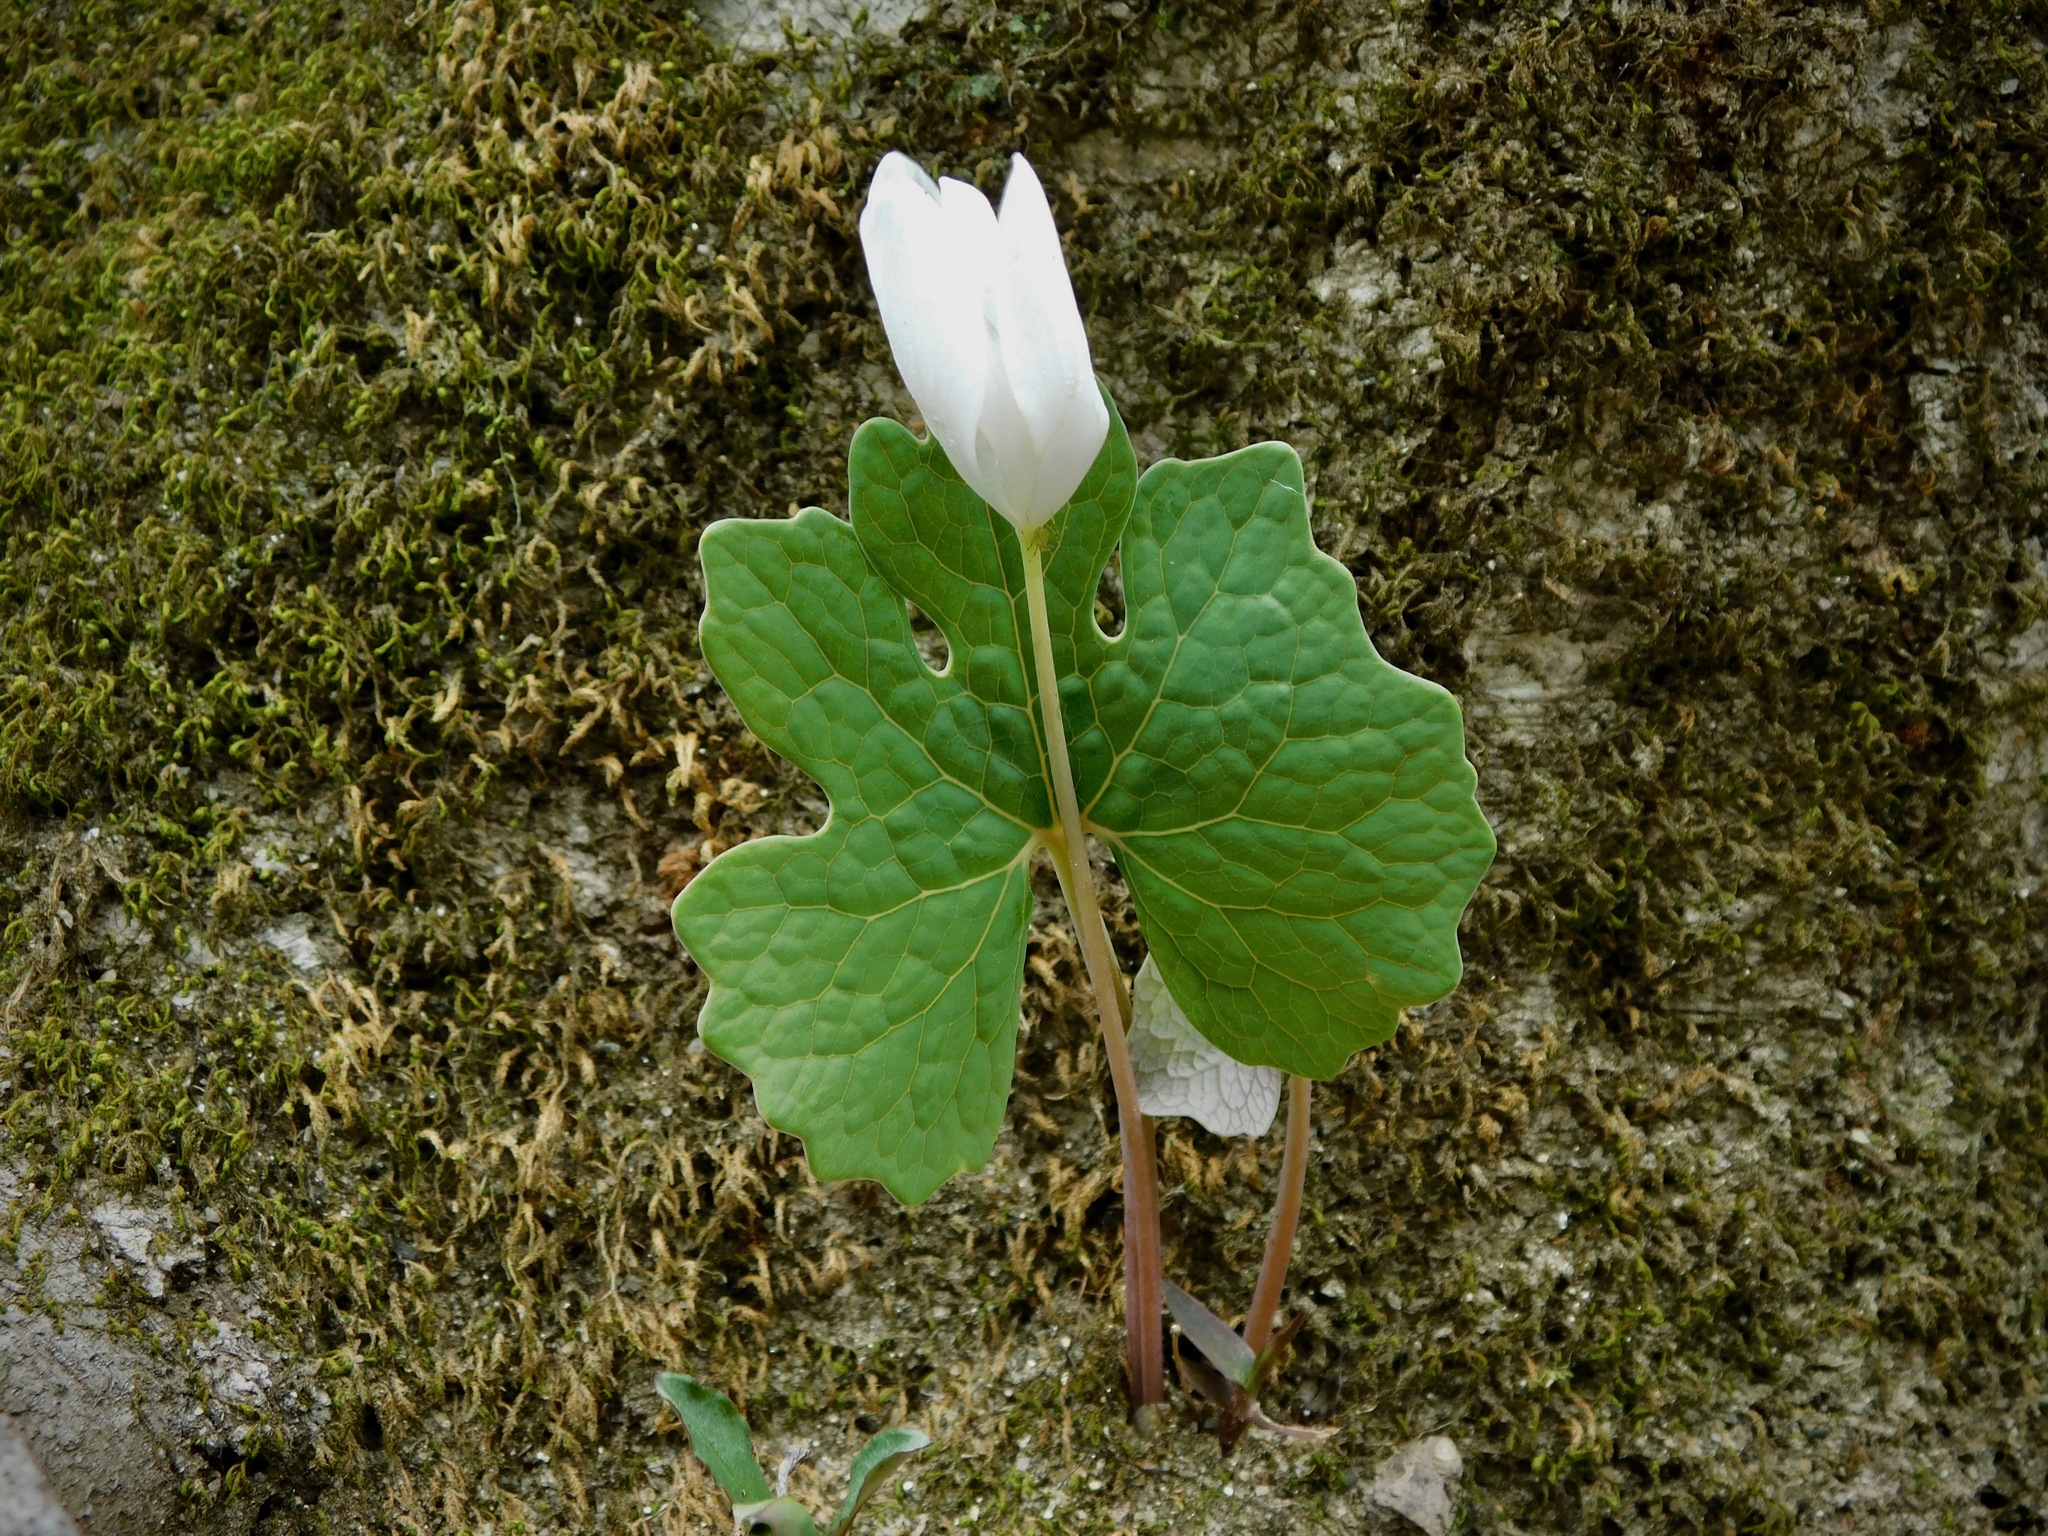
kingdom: Plantae
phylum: Tracheophyta
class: Magnoliopsida
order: Ranunculales
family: Papaveraceae
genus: Sanguinaria
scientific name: Sanguinaria canadensis
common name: Bloodroot
